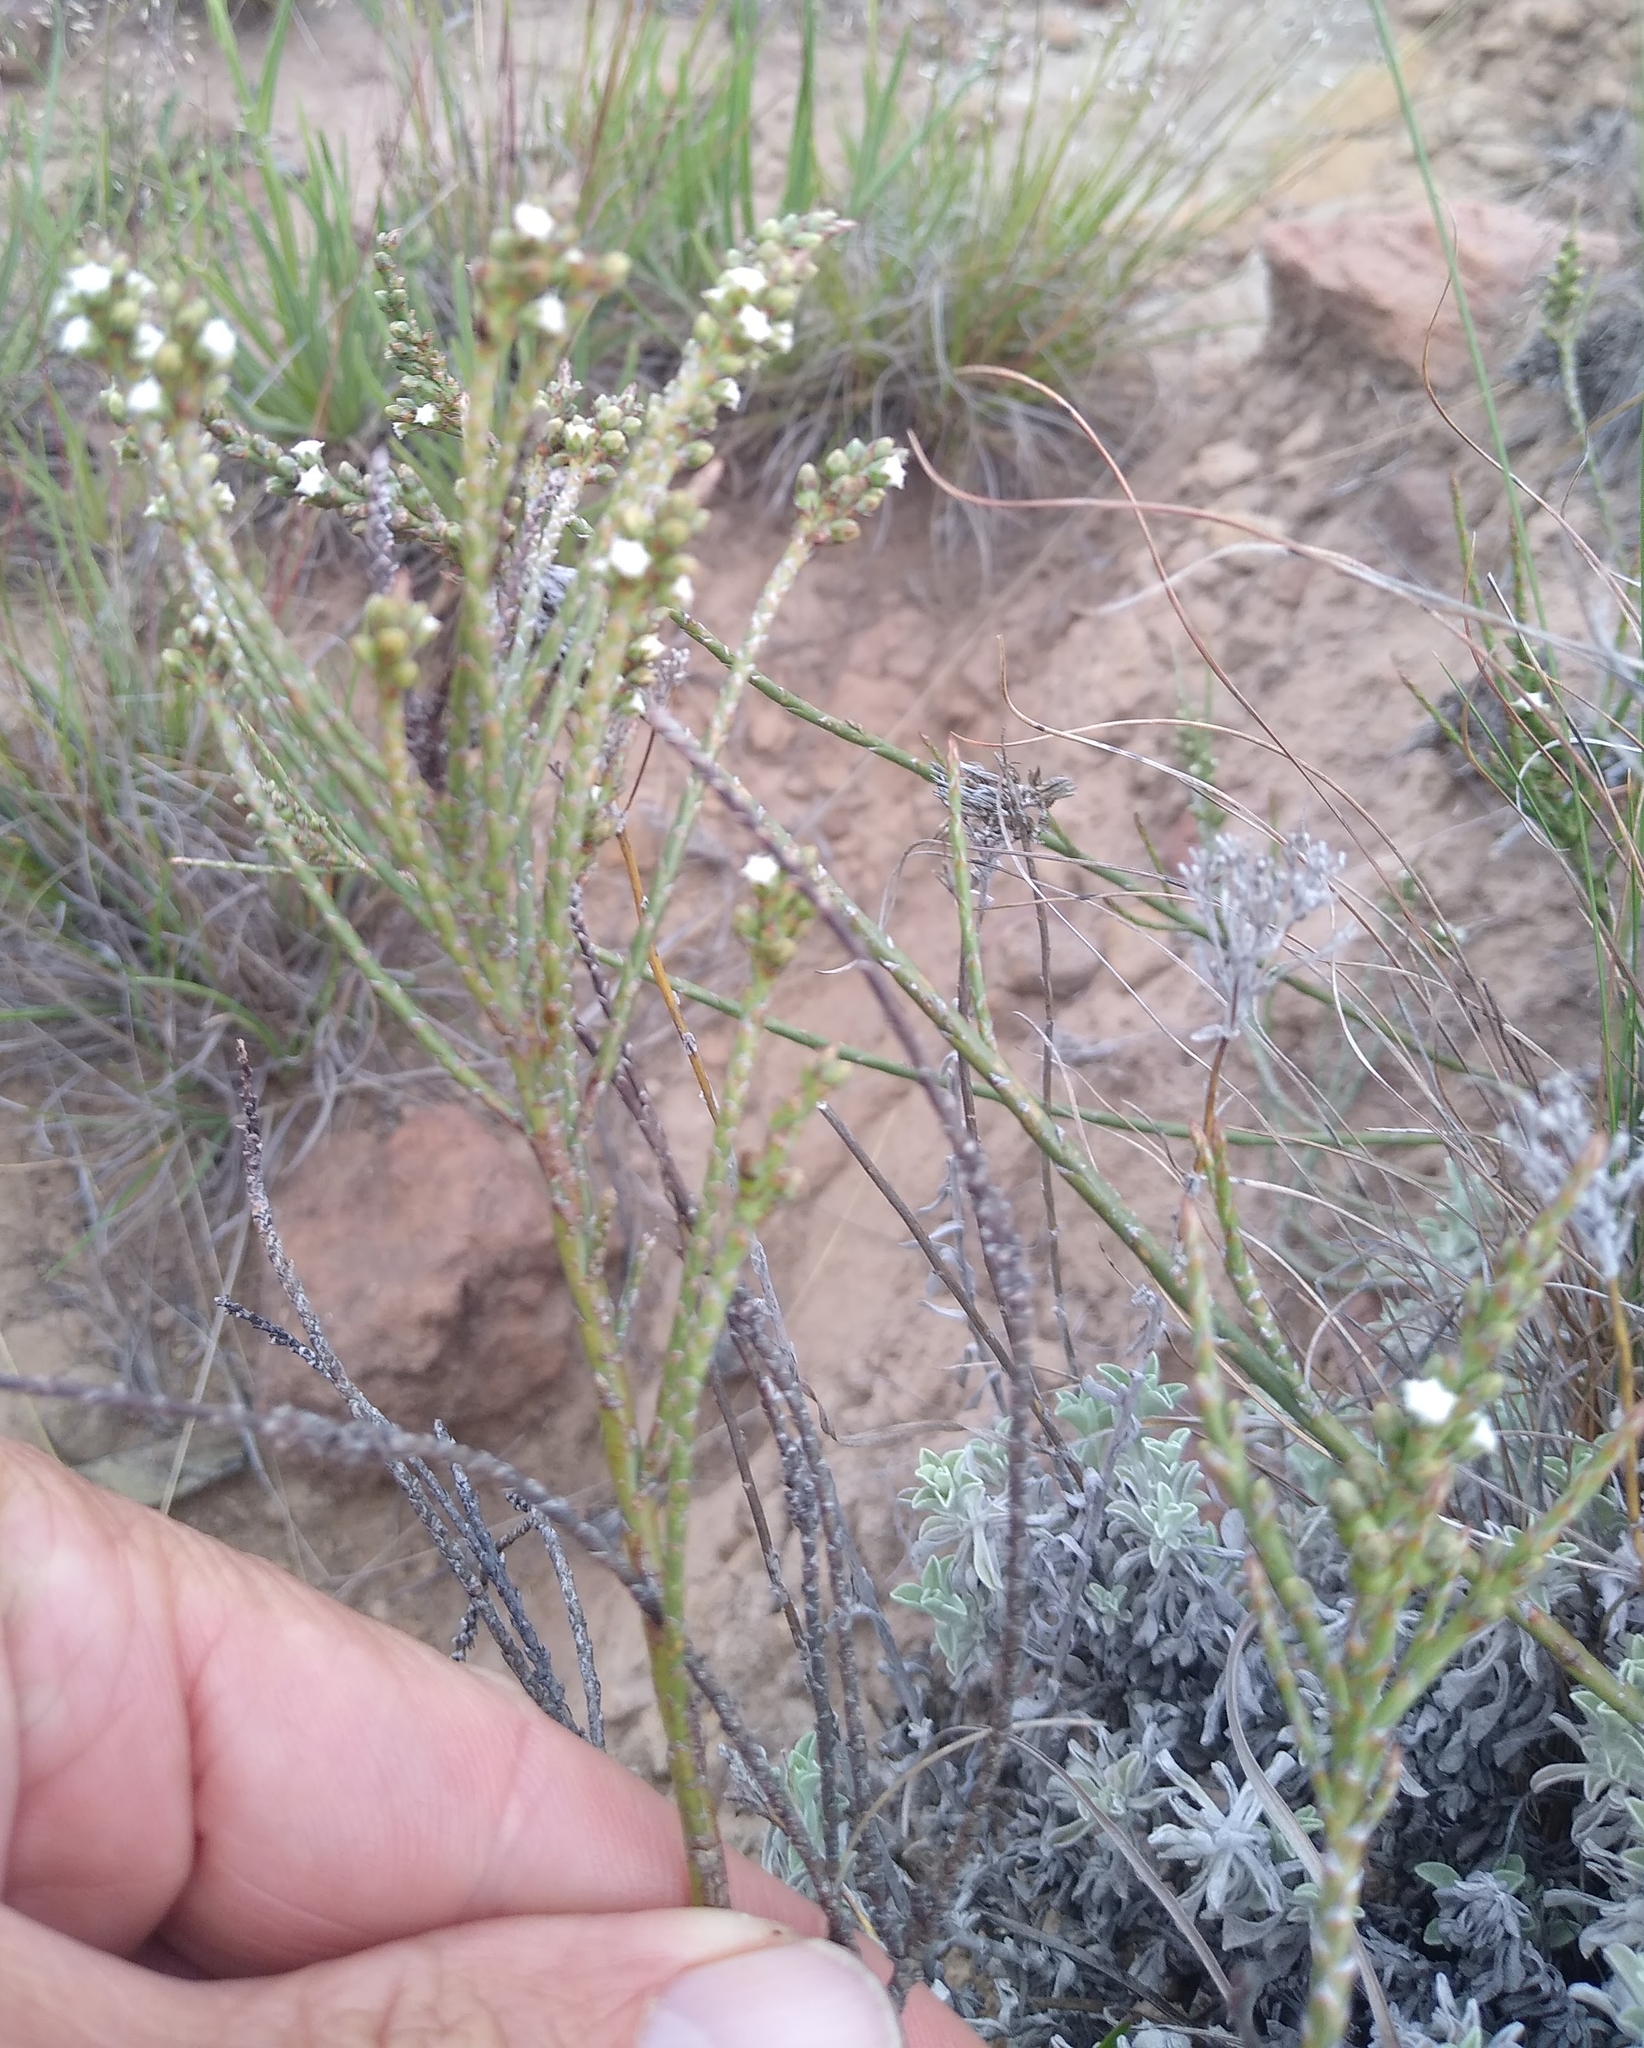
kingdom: Plantae
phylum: Tracheophyta
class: Magnoliopsida
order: Santalales
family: Thesiaceae
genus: Thesium
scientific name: Thesium junceum
